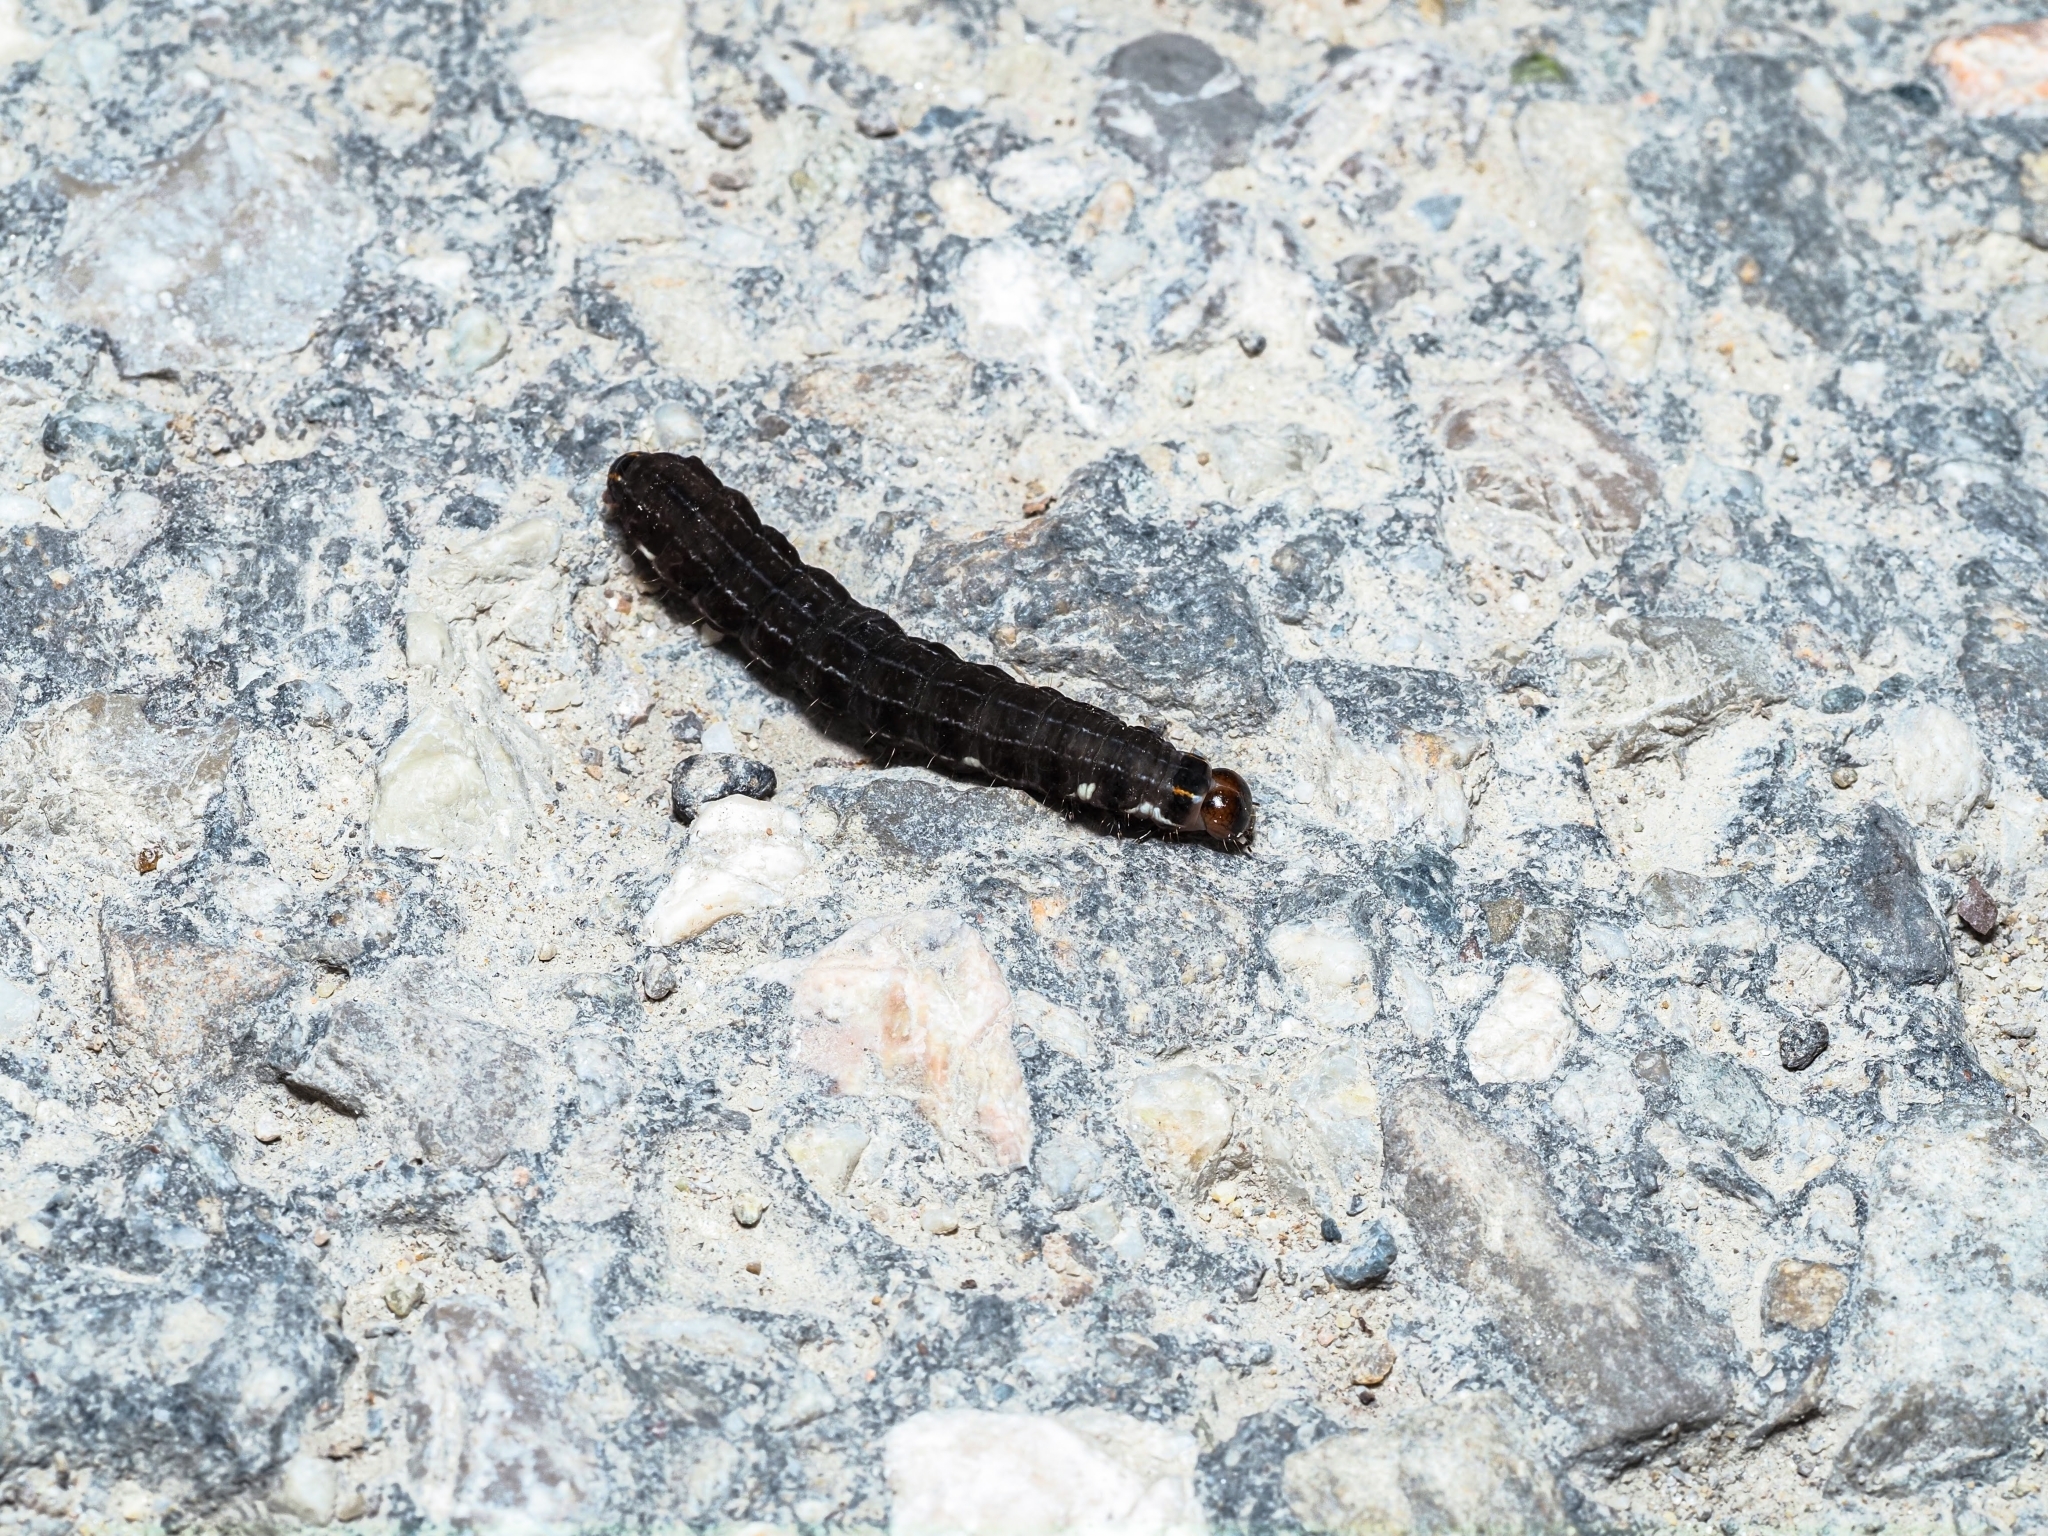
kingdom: Animalia
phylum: Arthropoda
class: Insecta
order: Lepidoptera
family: Noctuidae
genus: Eupsilia
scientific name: Eupsilia transversa
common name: Satellite
